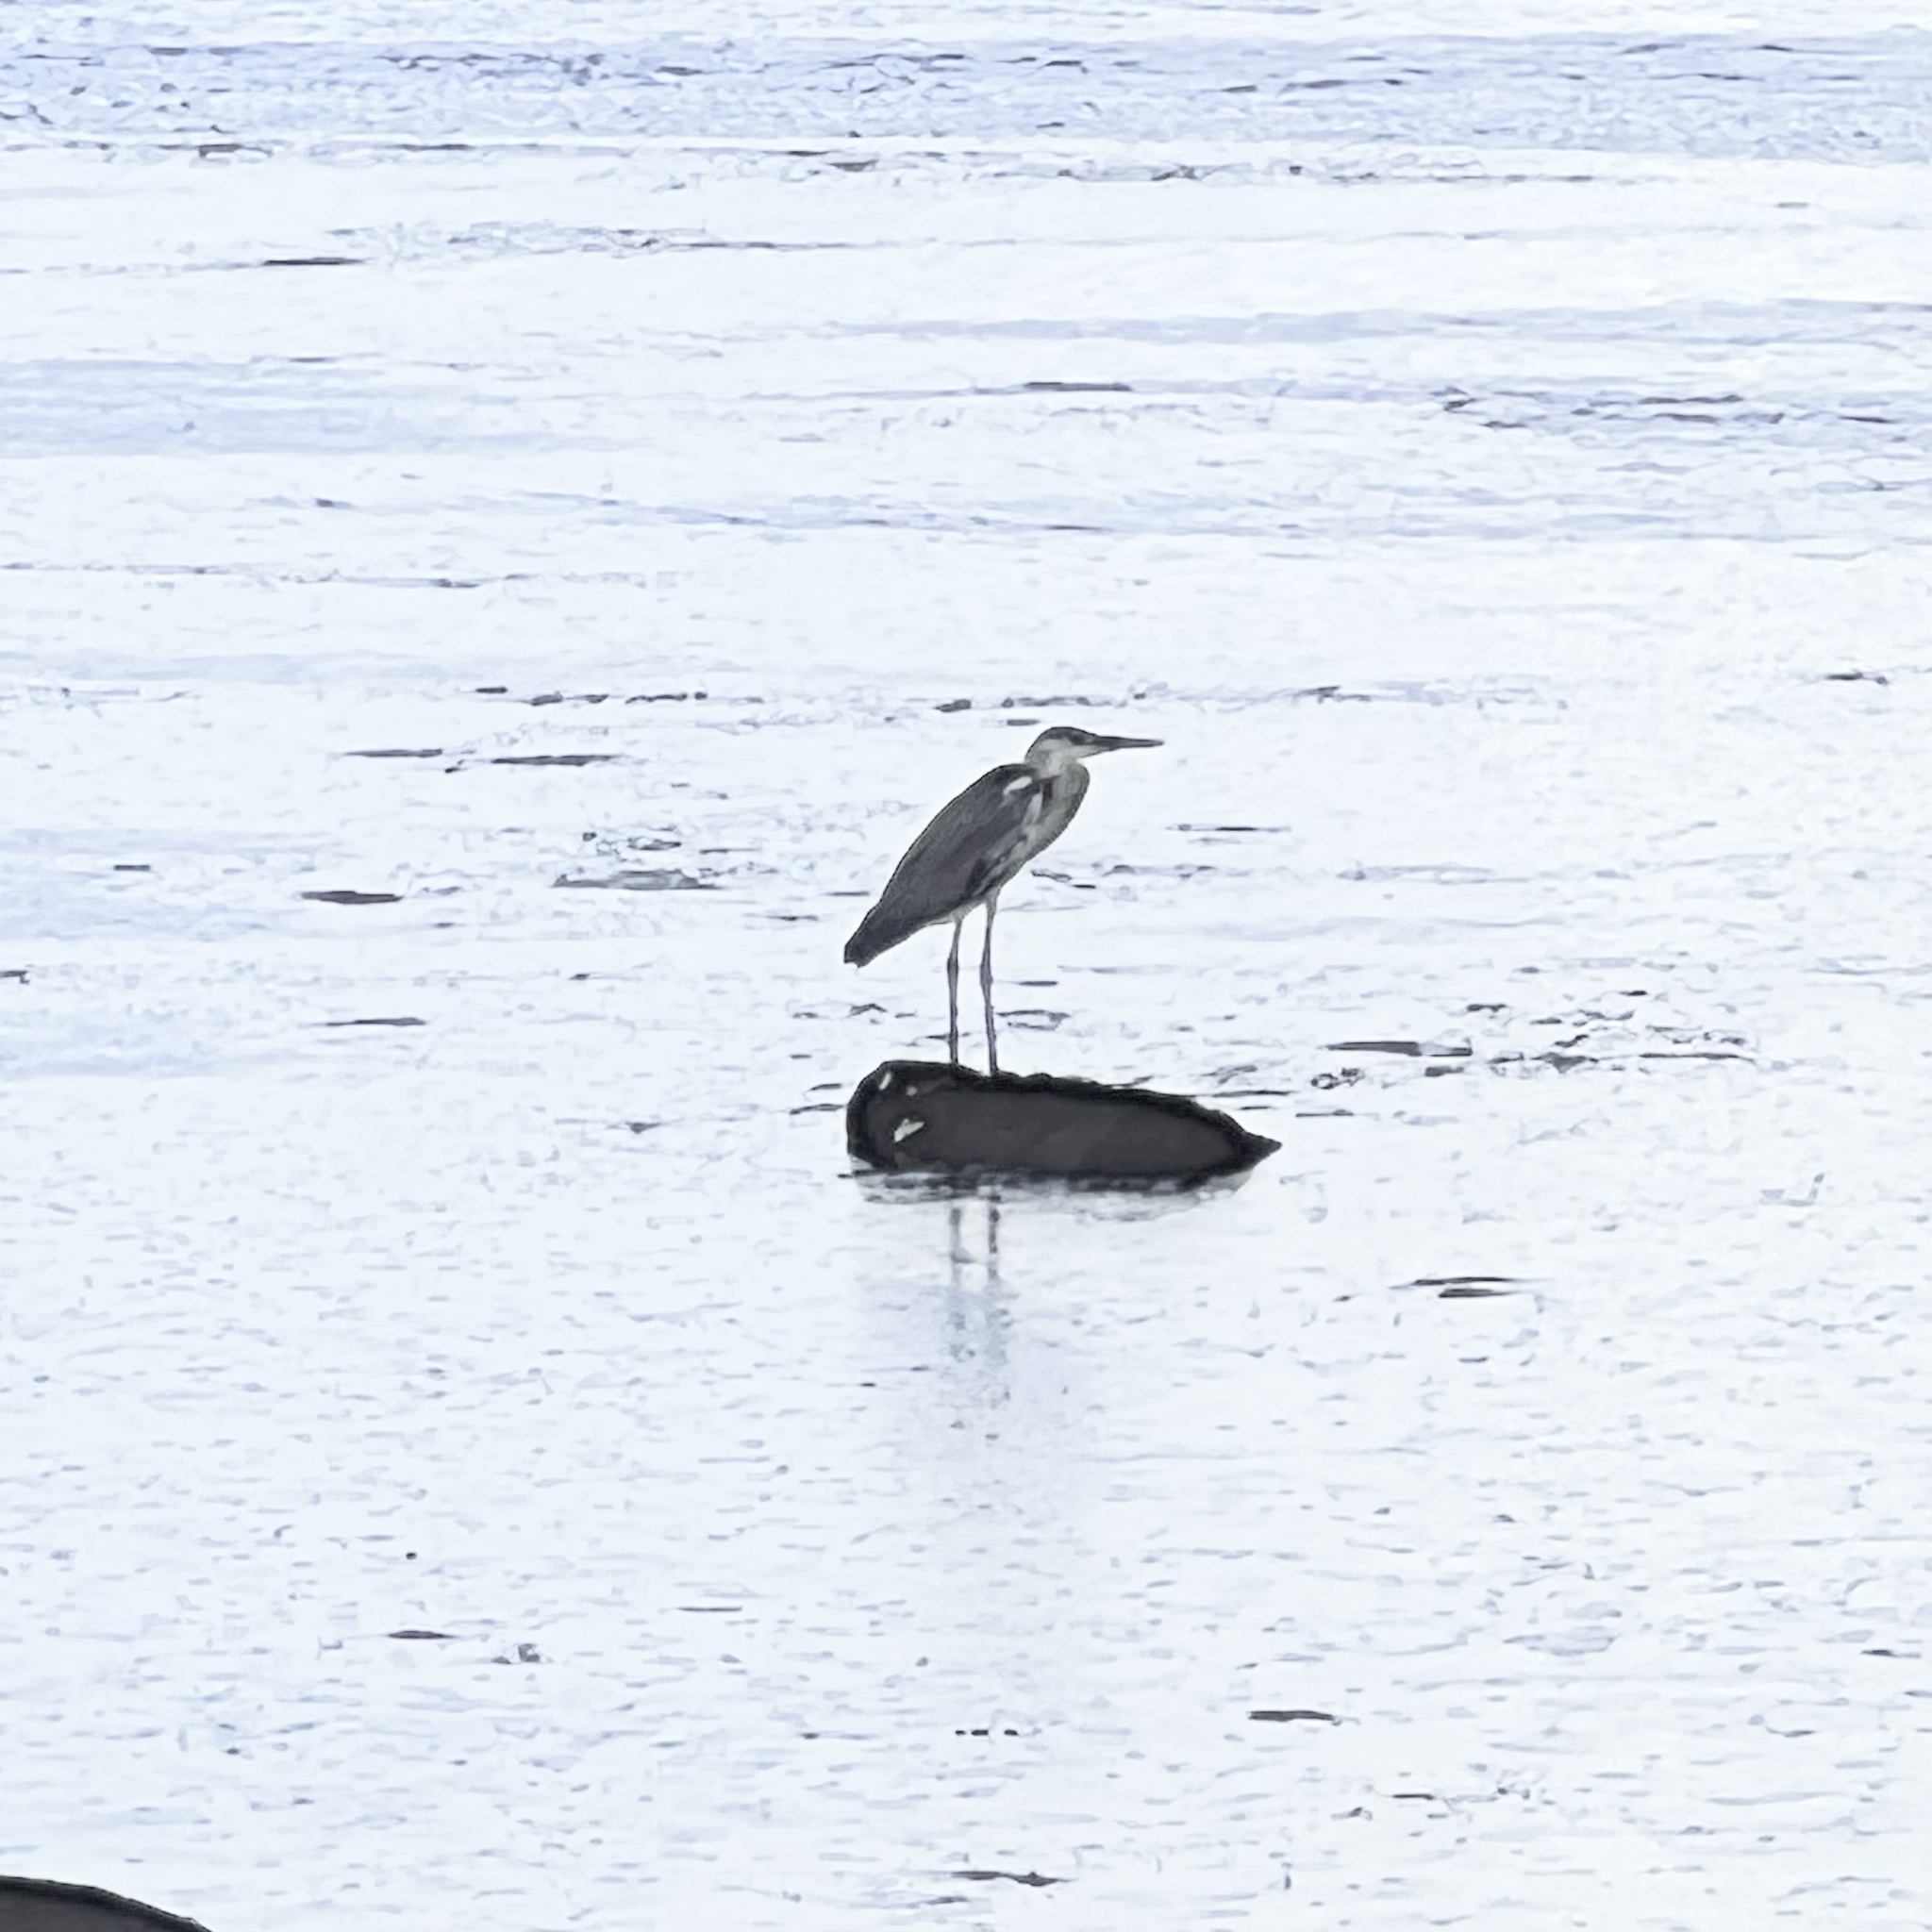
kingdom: Animalia
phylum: Chordata
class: Aves
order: Pelecaniformes
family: Ardeidae
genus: Ardea
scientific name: Ardea cinerea
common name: Grey heron
